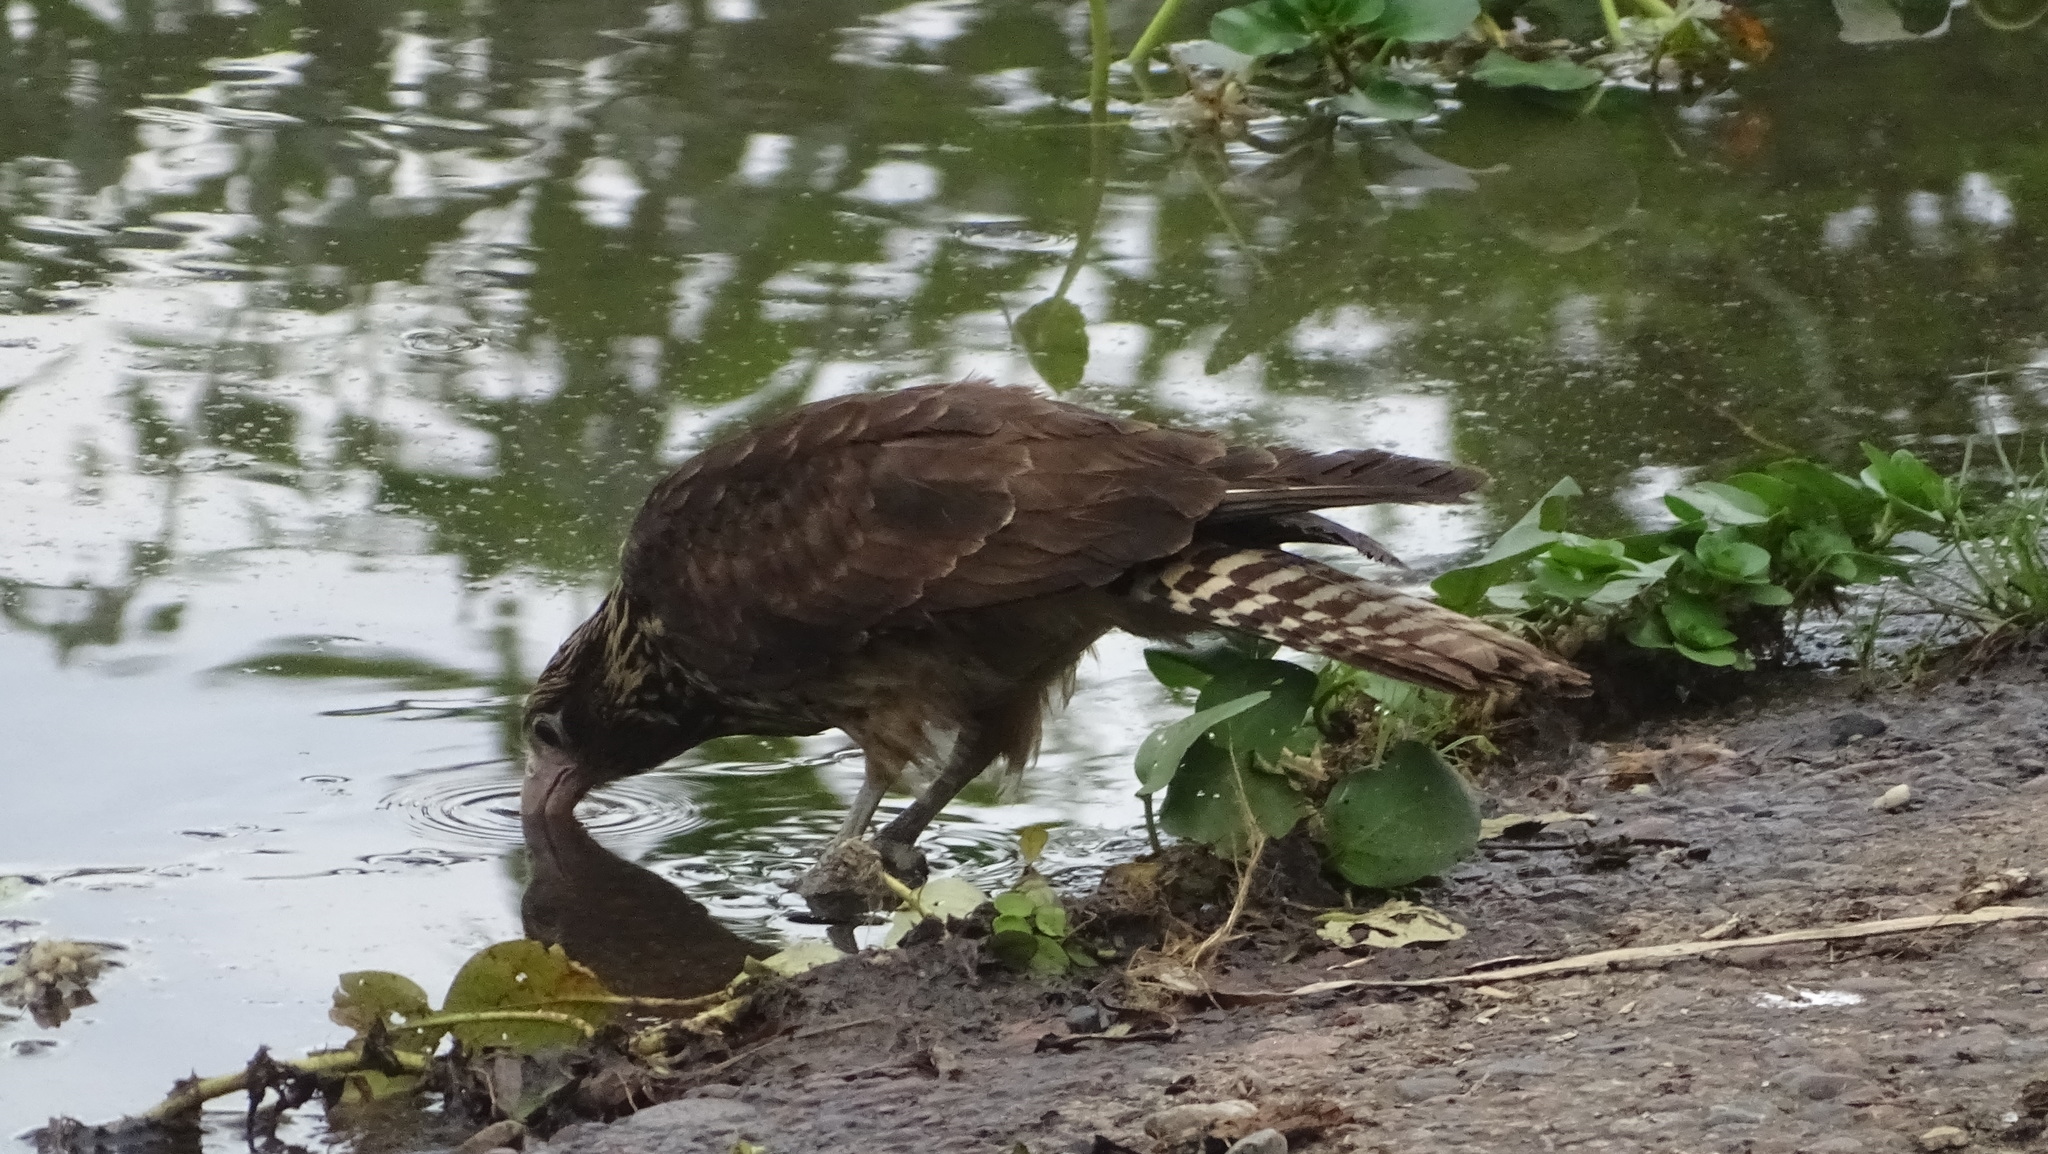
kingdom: Animalia
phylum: Chordata
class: Aves
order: Falconiformes
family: Falconidae
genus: Daptrius
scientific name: Daptrius
